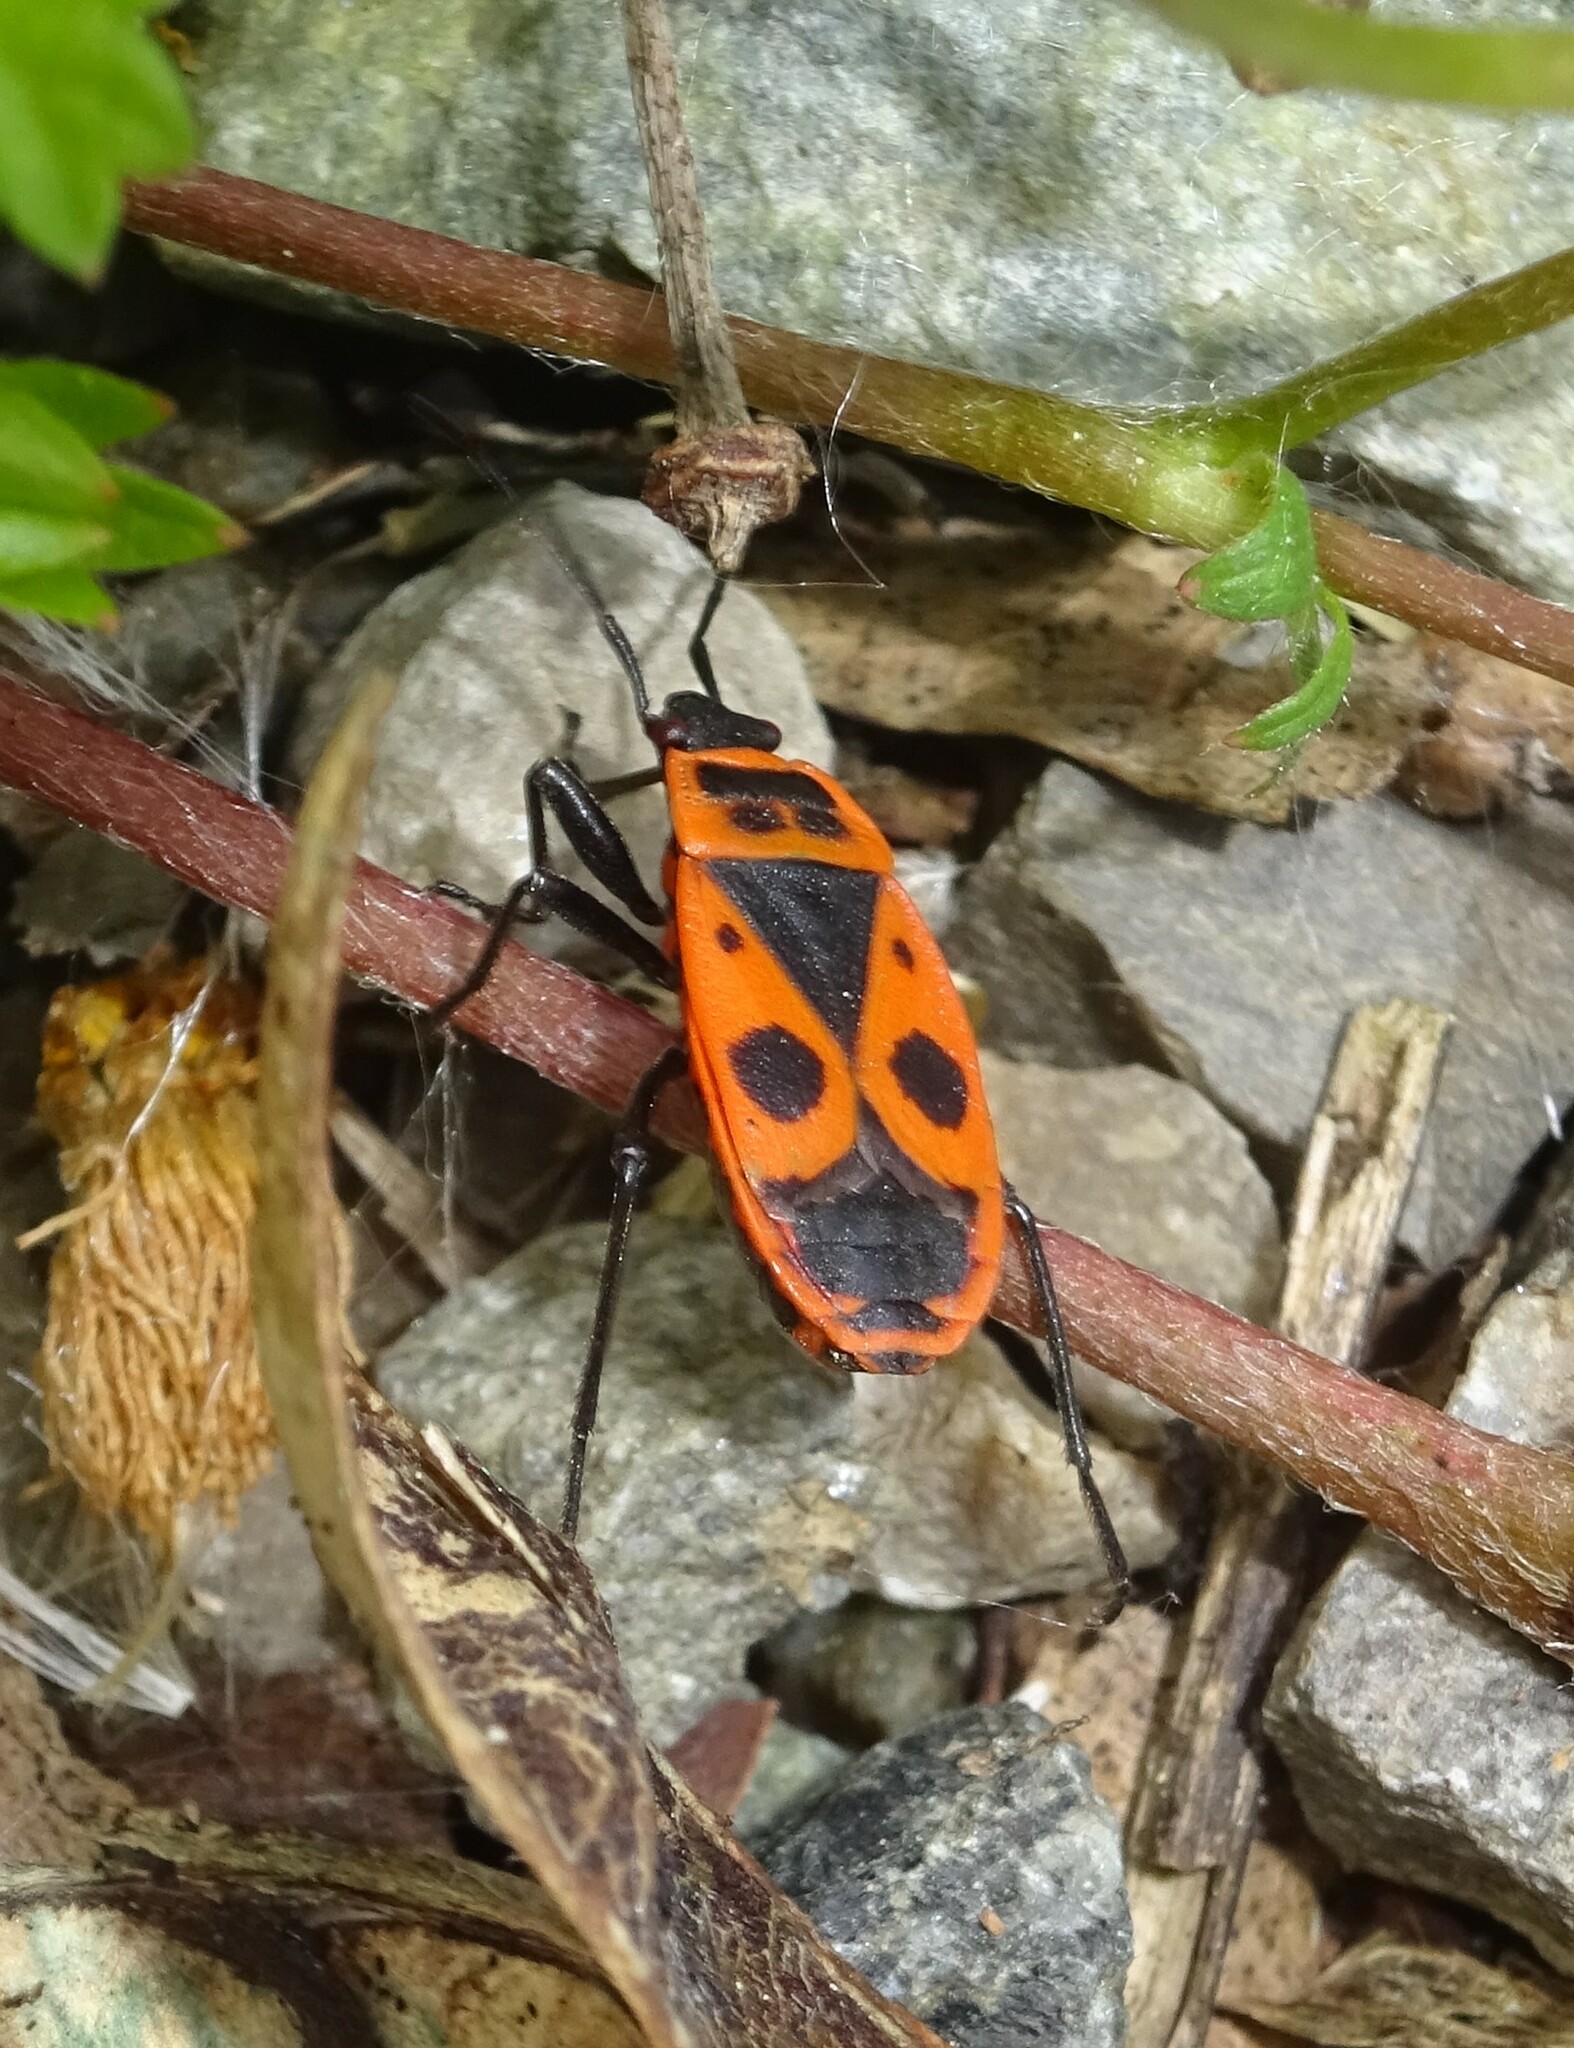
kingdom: Animalia
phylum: Arthropoda
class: Insecta
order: Hemiptera
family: Pyrrhocoridae
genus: Pyrrhocoris
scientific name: Pyrrhocoris apterus
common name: Firebug
